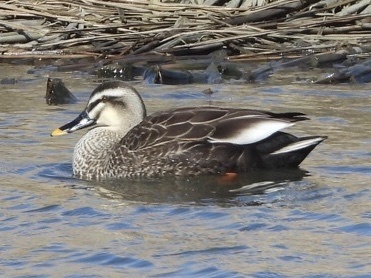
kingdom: Animalia
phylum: Chordata
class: Aves
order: Anseriformes
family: Anatidae
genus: Anas
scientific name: Anas zonorhyncha
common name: Eastern spot-billed duck
